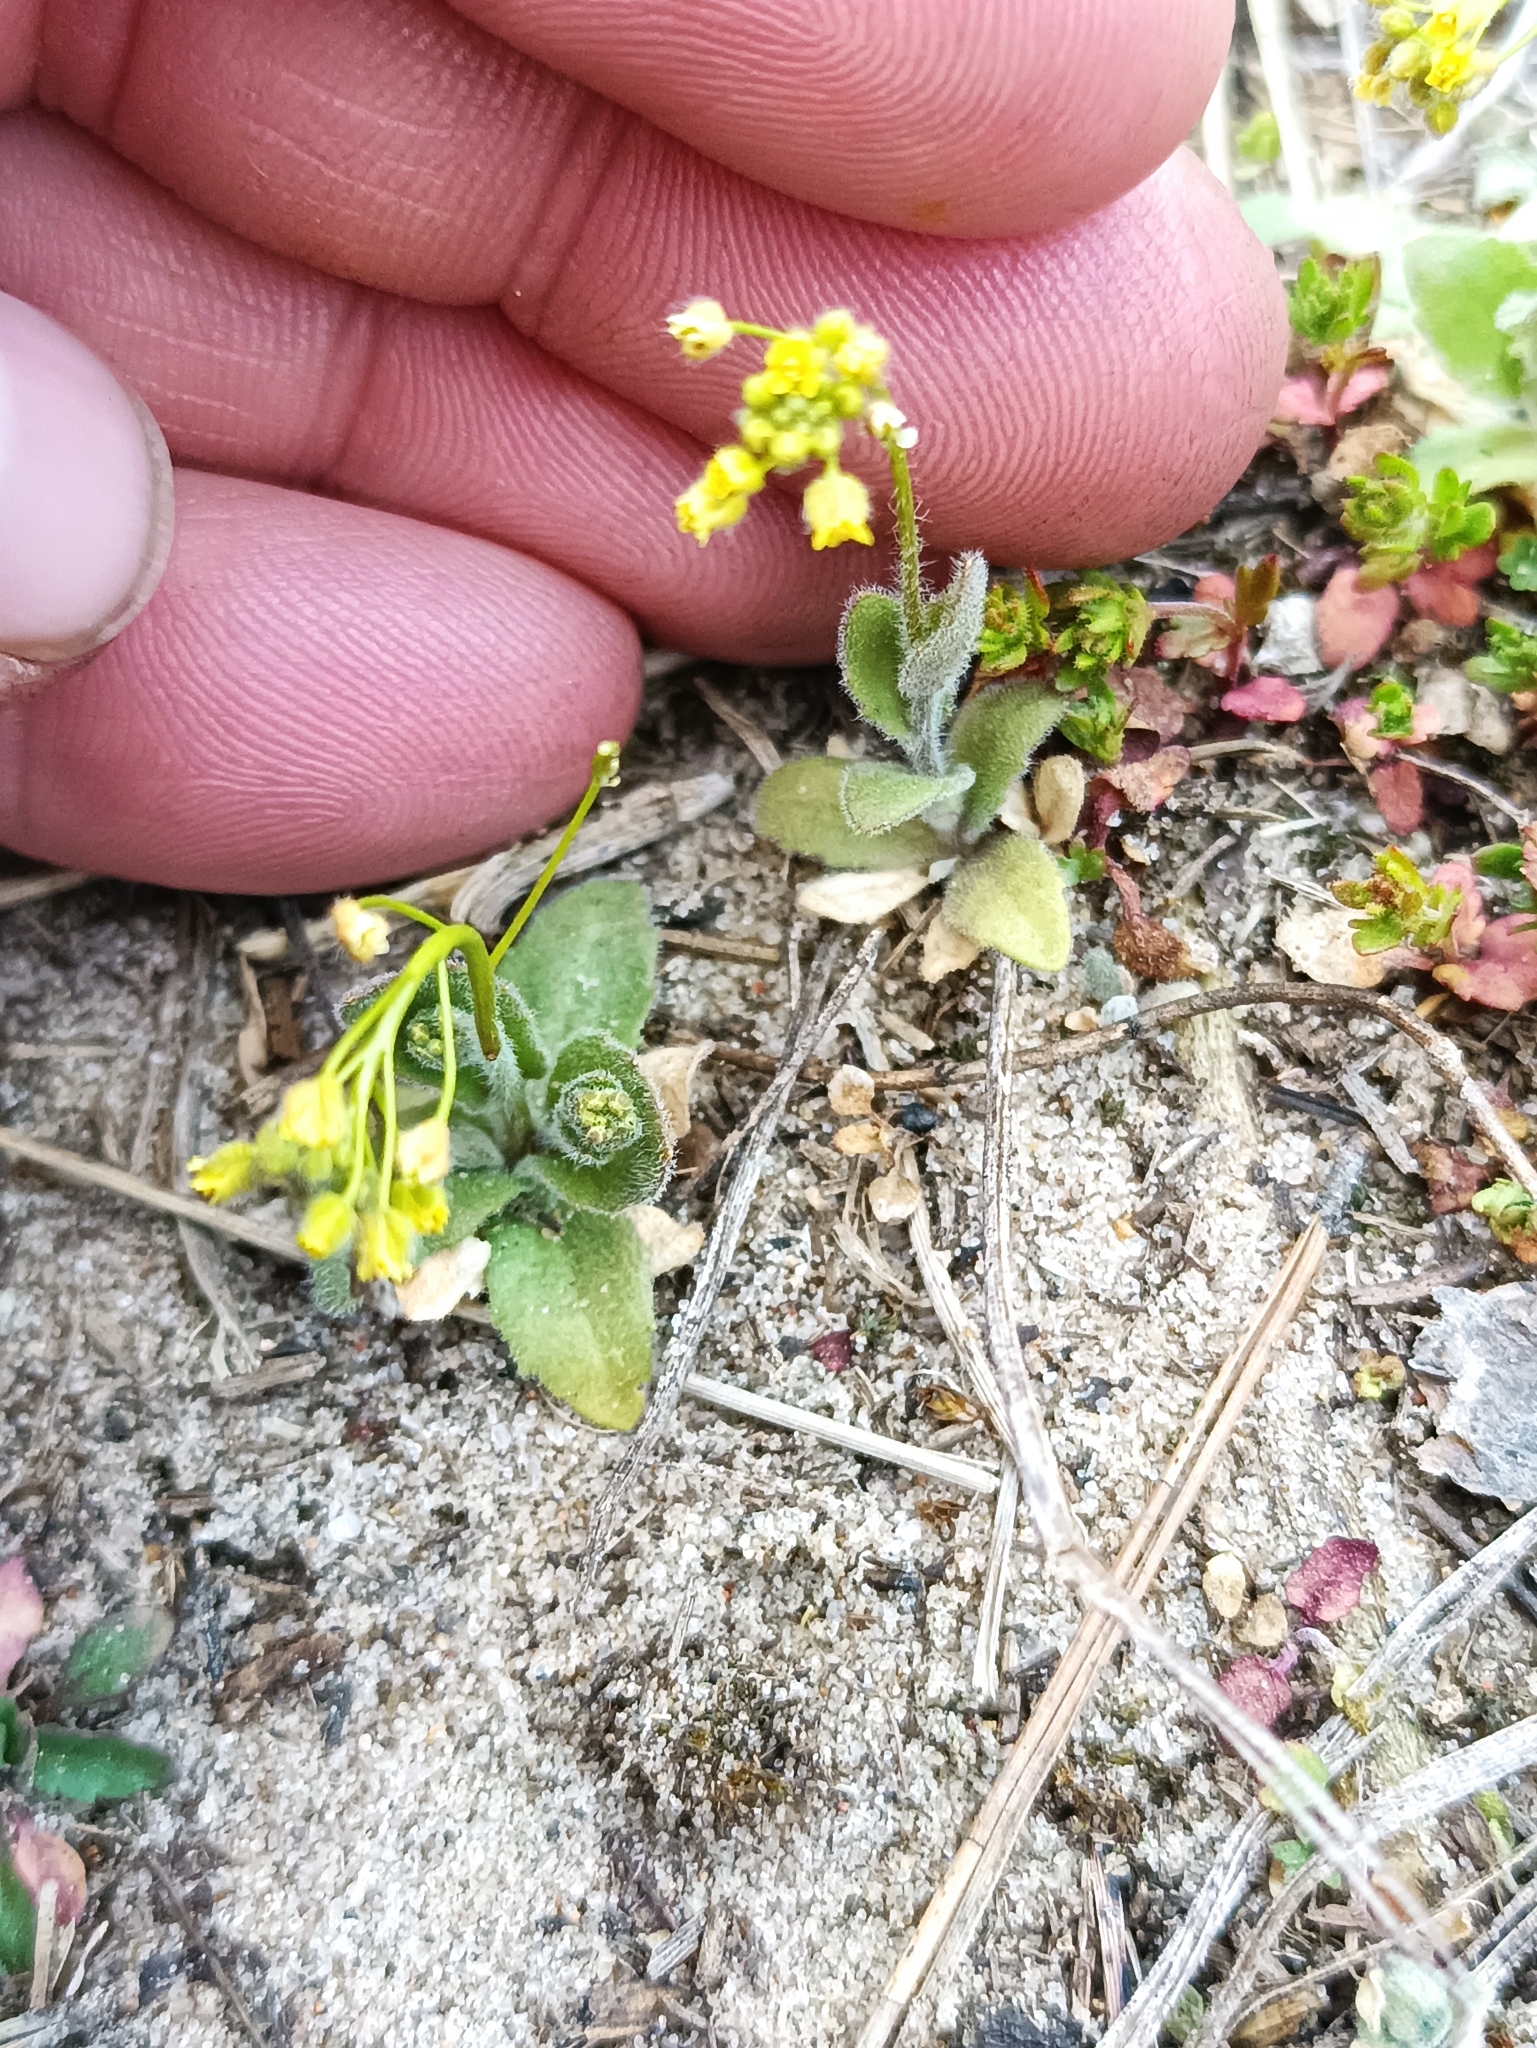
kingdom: Plantae
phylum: Tracheophyta
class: Magnoliopsida
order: Brassicales
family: Brassicaceae
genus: Draba
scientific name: Draba nemorosa
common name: Wood whitlow-grass
